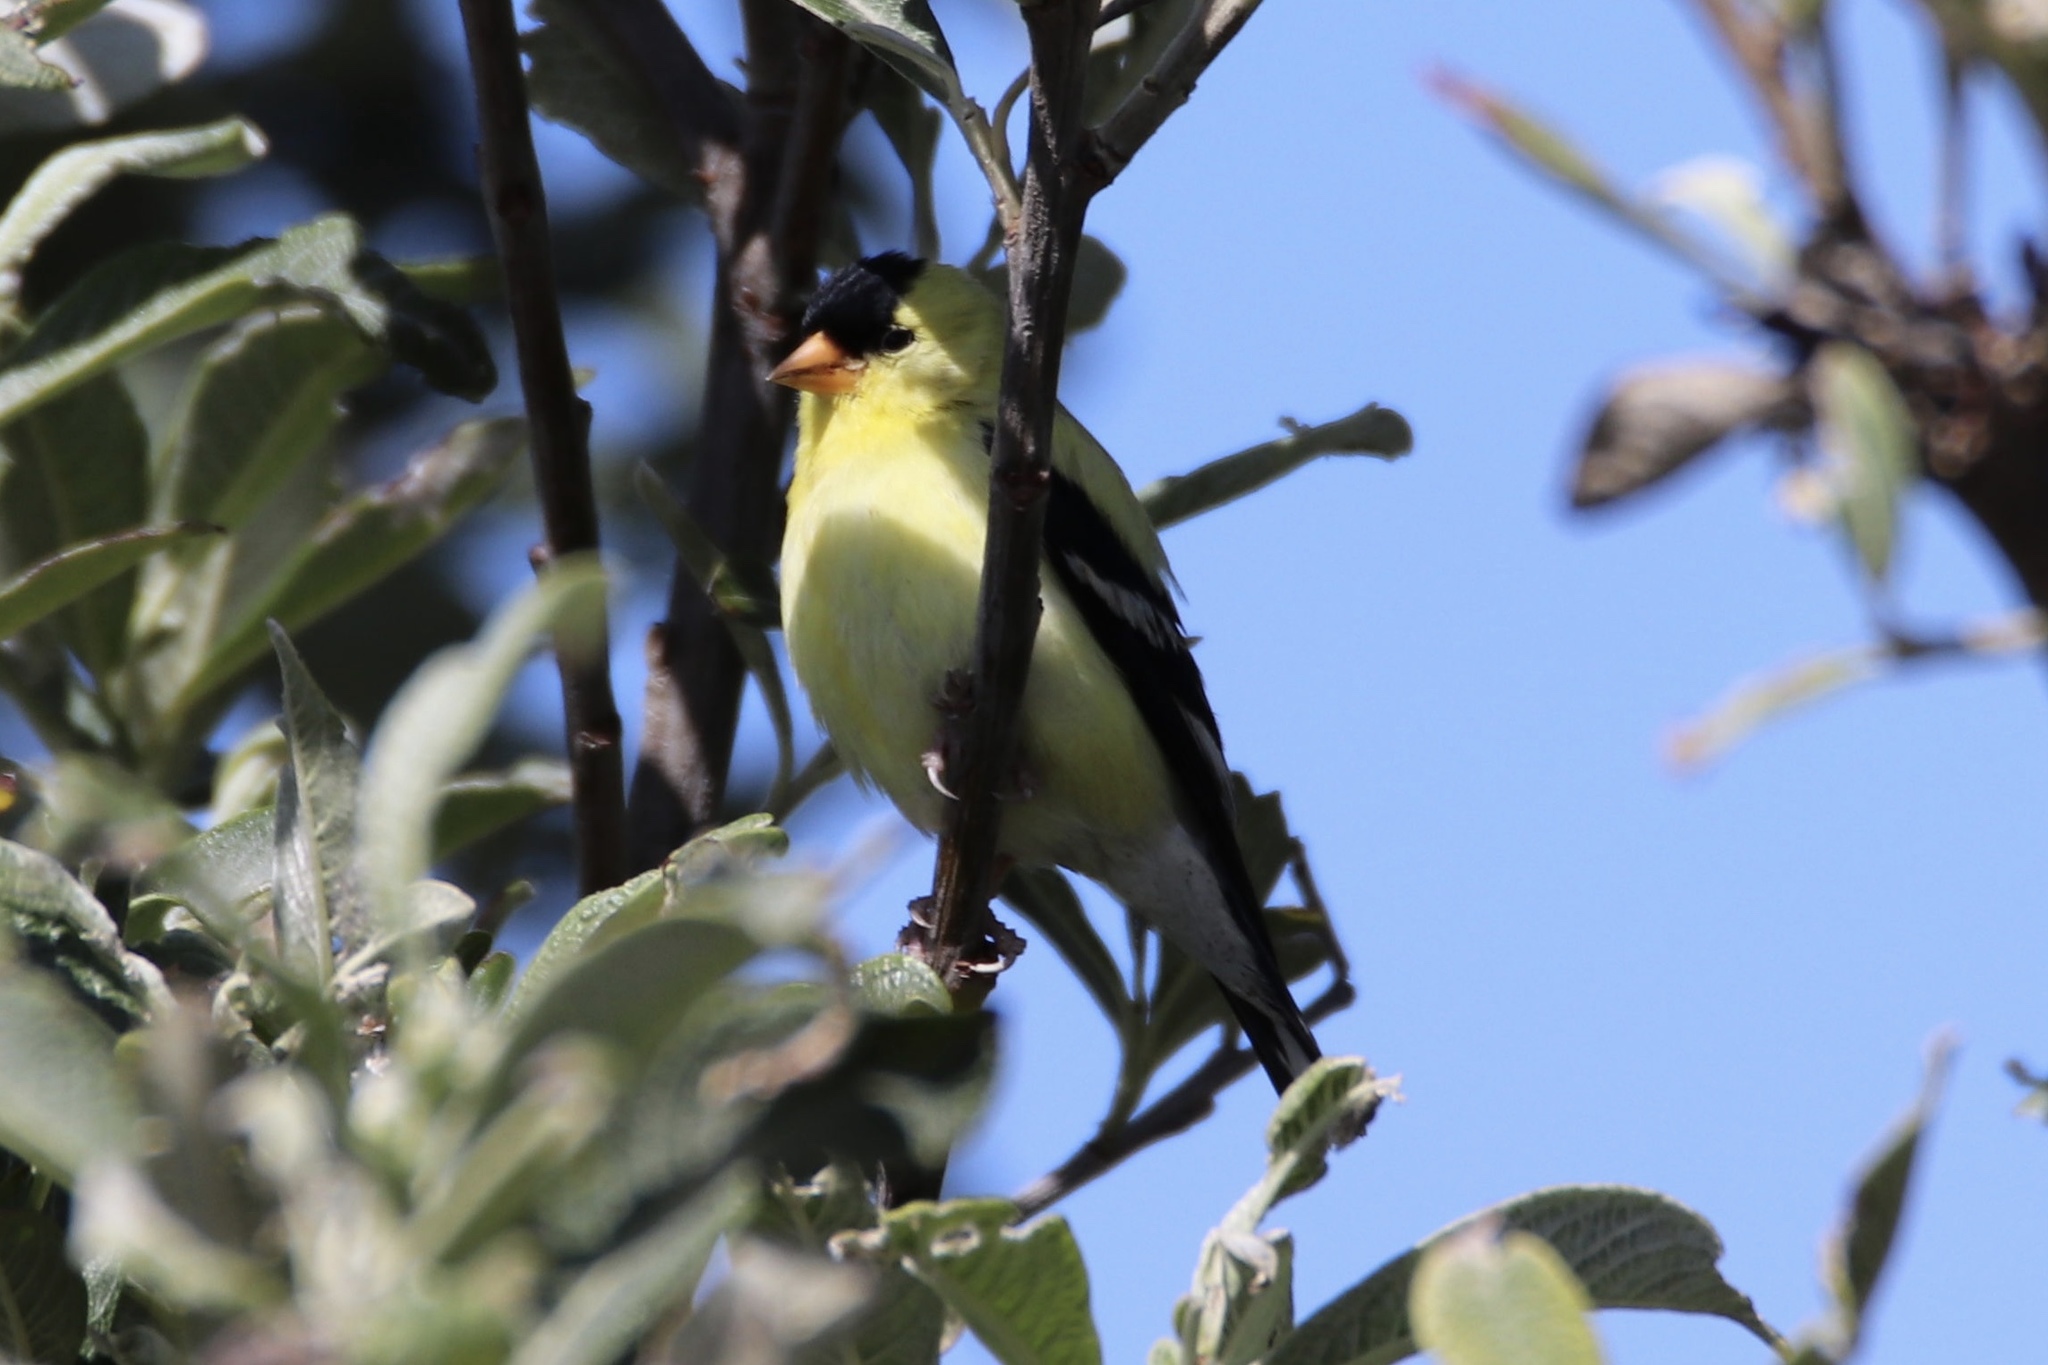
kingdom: Animalia
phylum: Chordata
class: Aves
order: Passeriformes
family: Fringillidae
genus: Spinus
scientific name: Spinus tristis
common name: American goldfinch
